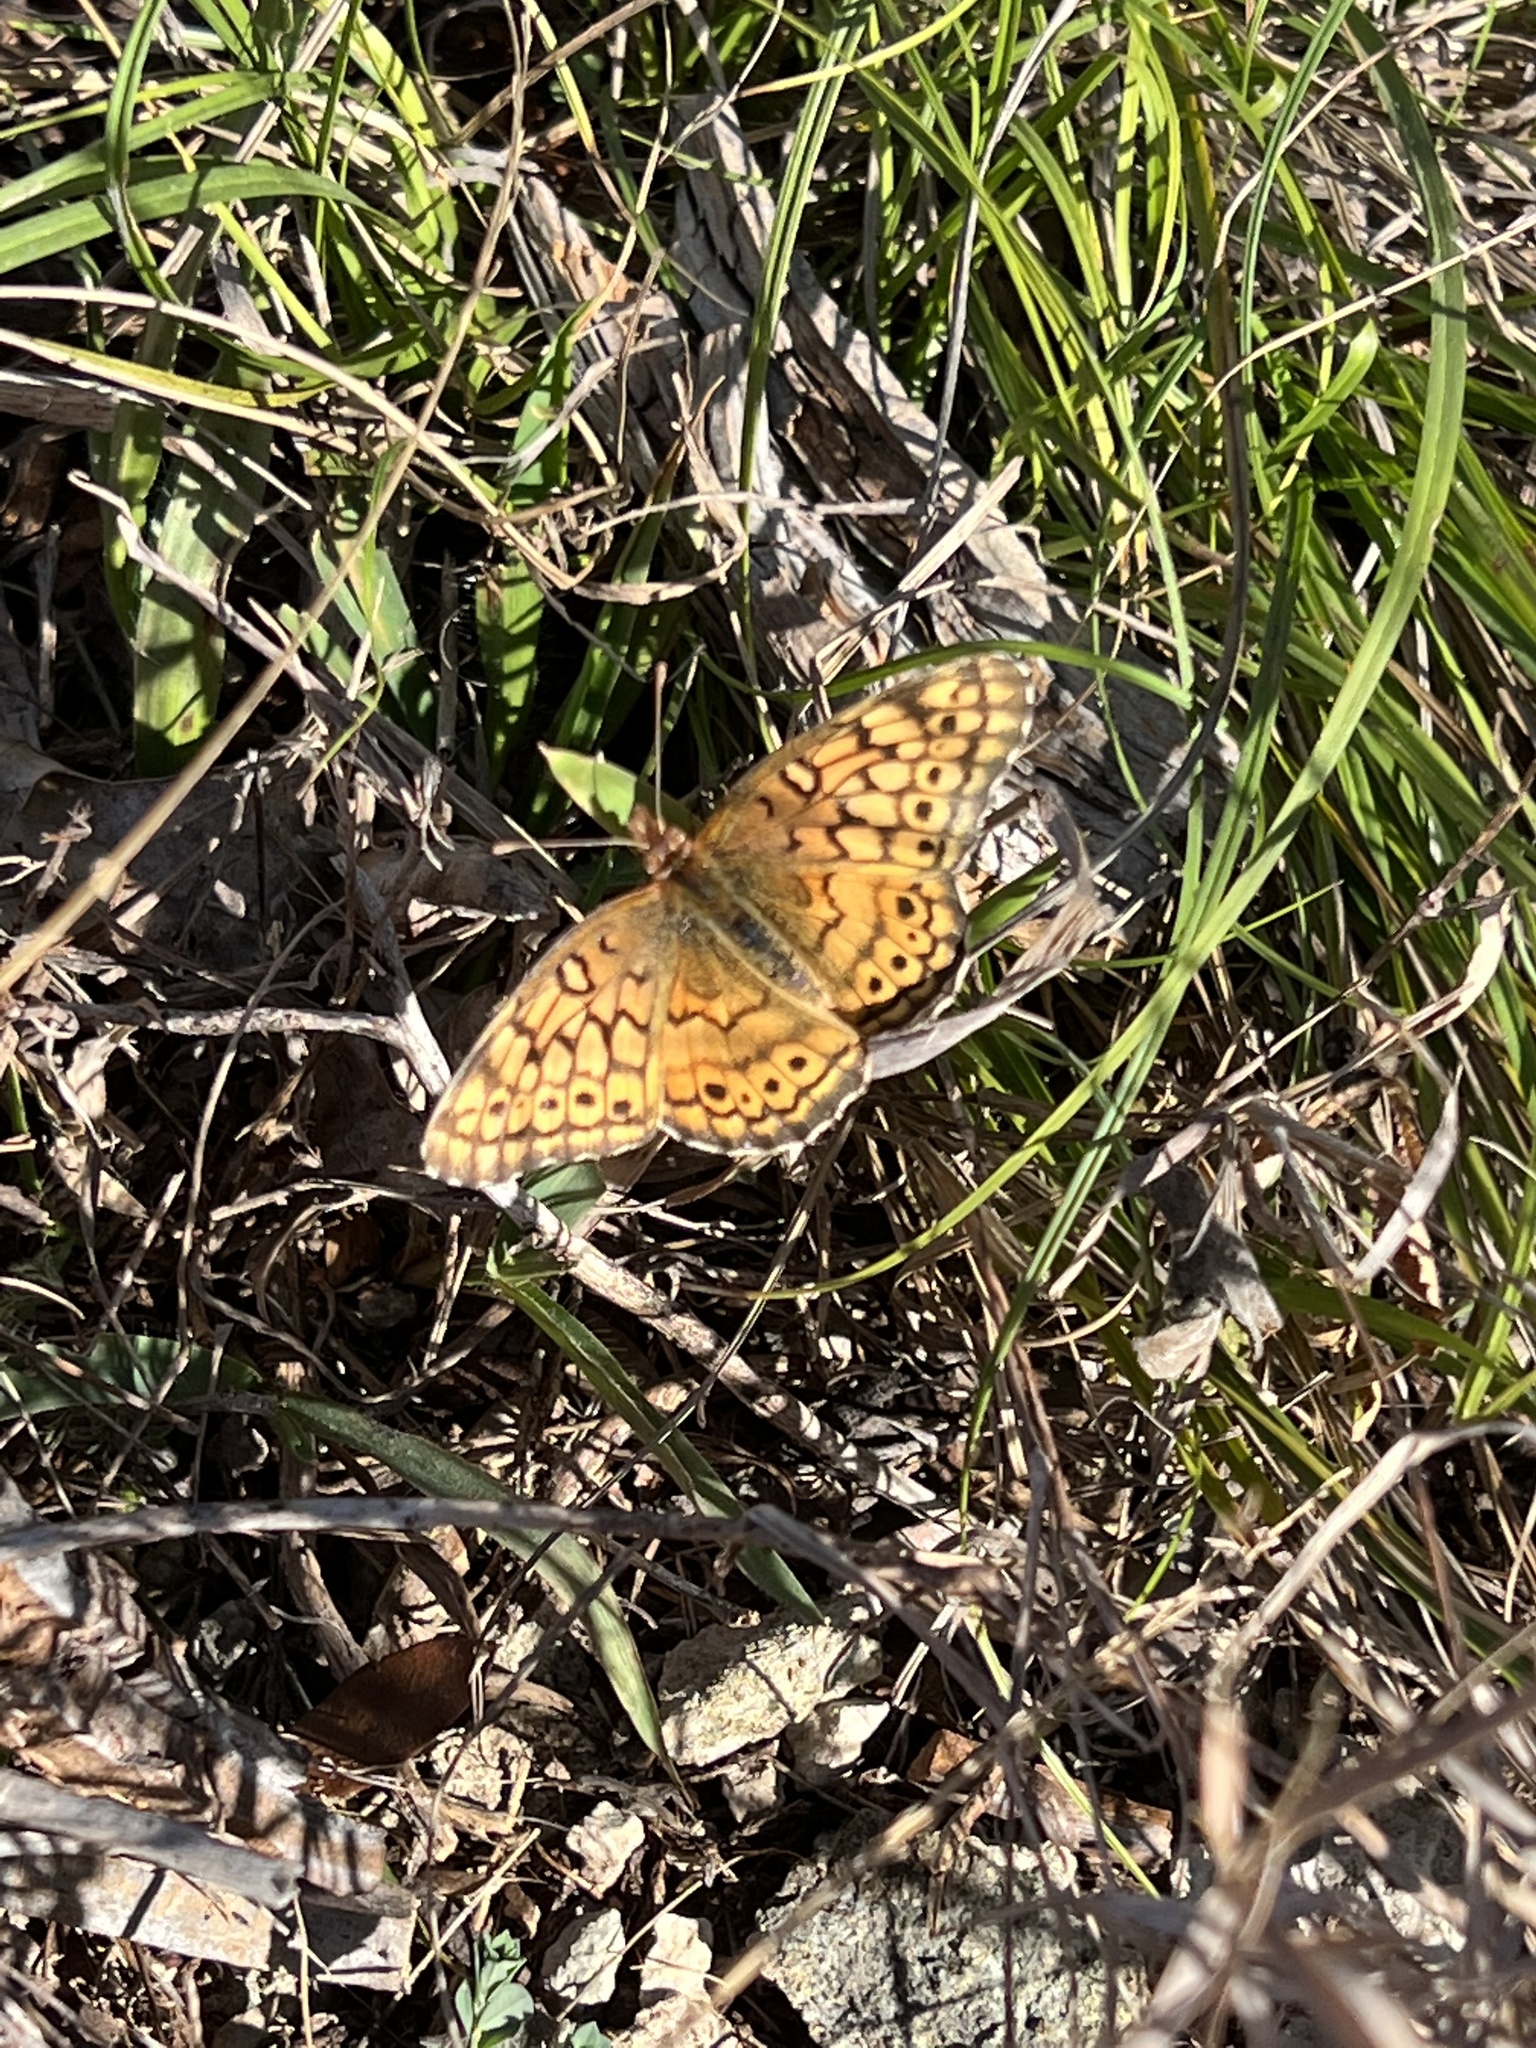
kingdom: Animalia
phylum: Arthropoda
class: Insecta
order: Lepidoptera
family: Nymphalidae
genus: Euptoieta
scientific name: Euptoieta claudia
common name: Variegated fritillary
